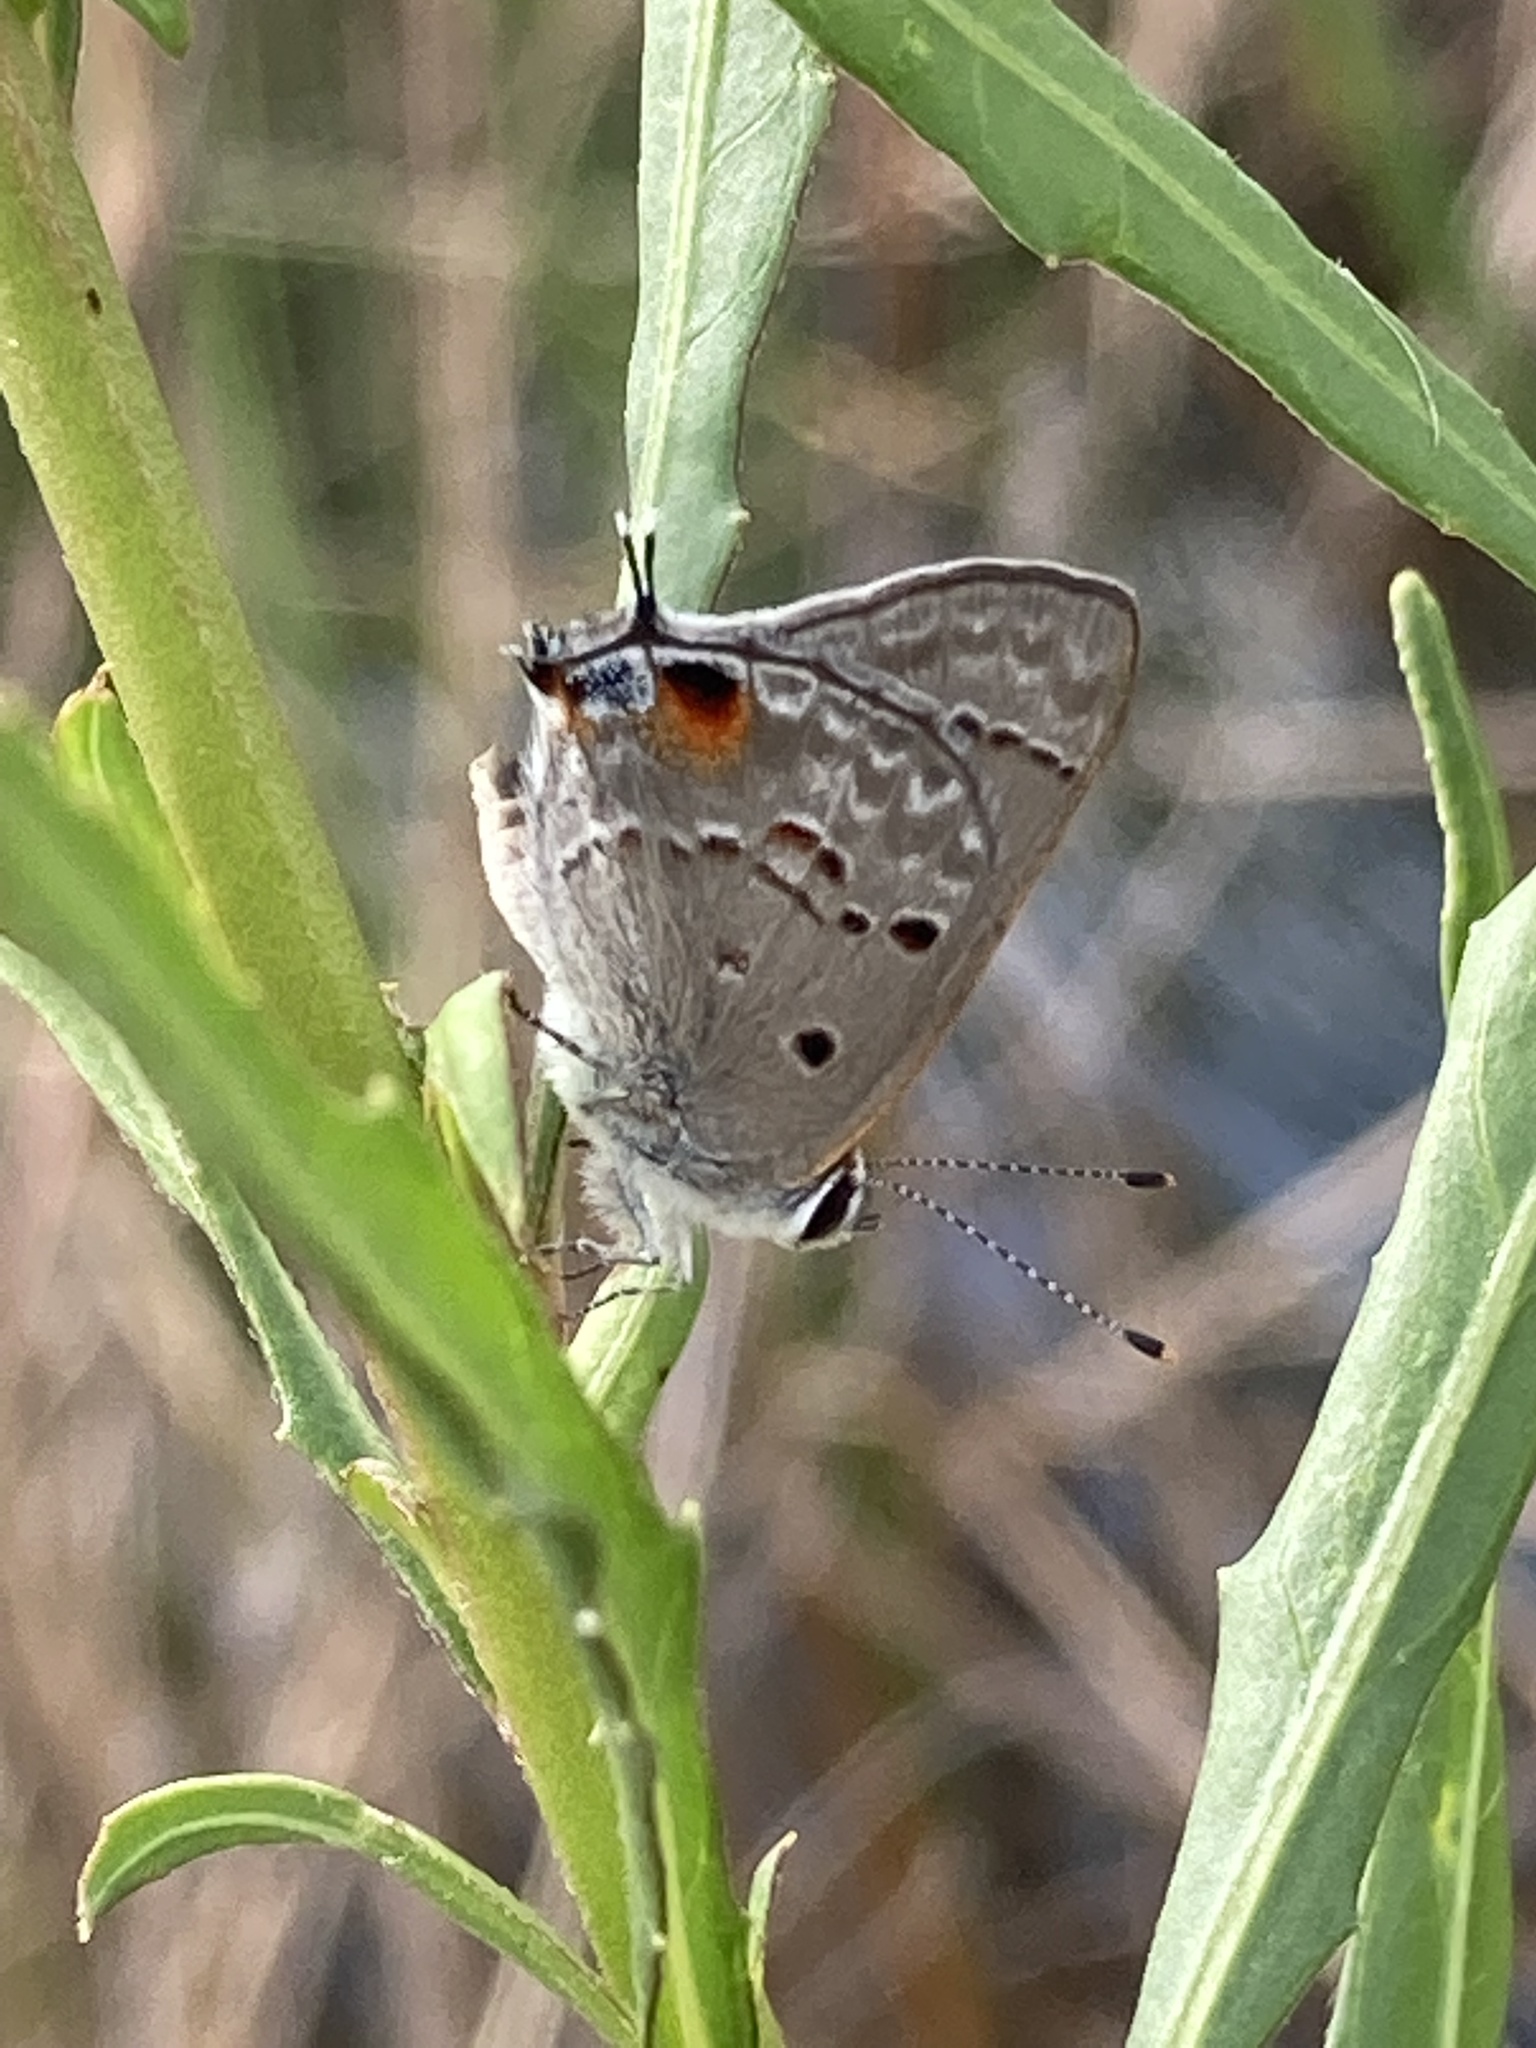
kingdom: Animalia
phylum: Arthropoda
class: Insecta
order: Lepidoptera
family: Lycaenidae
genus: Callicista
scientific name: Callicista columella
